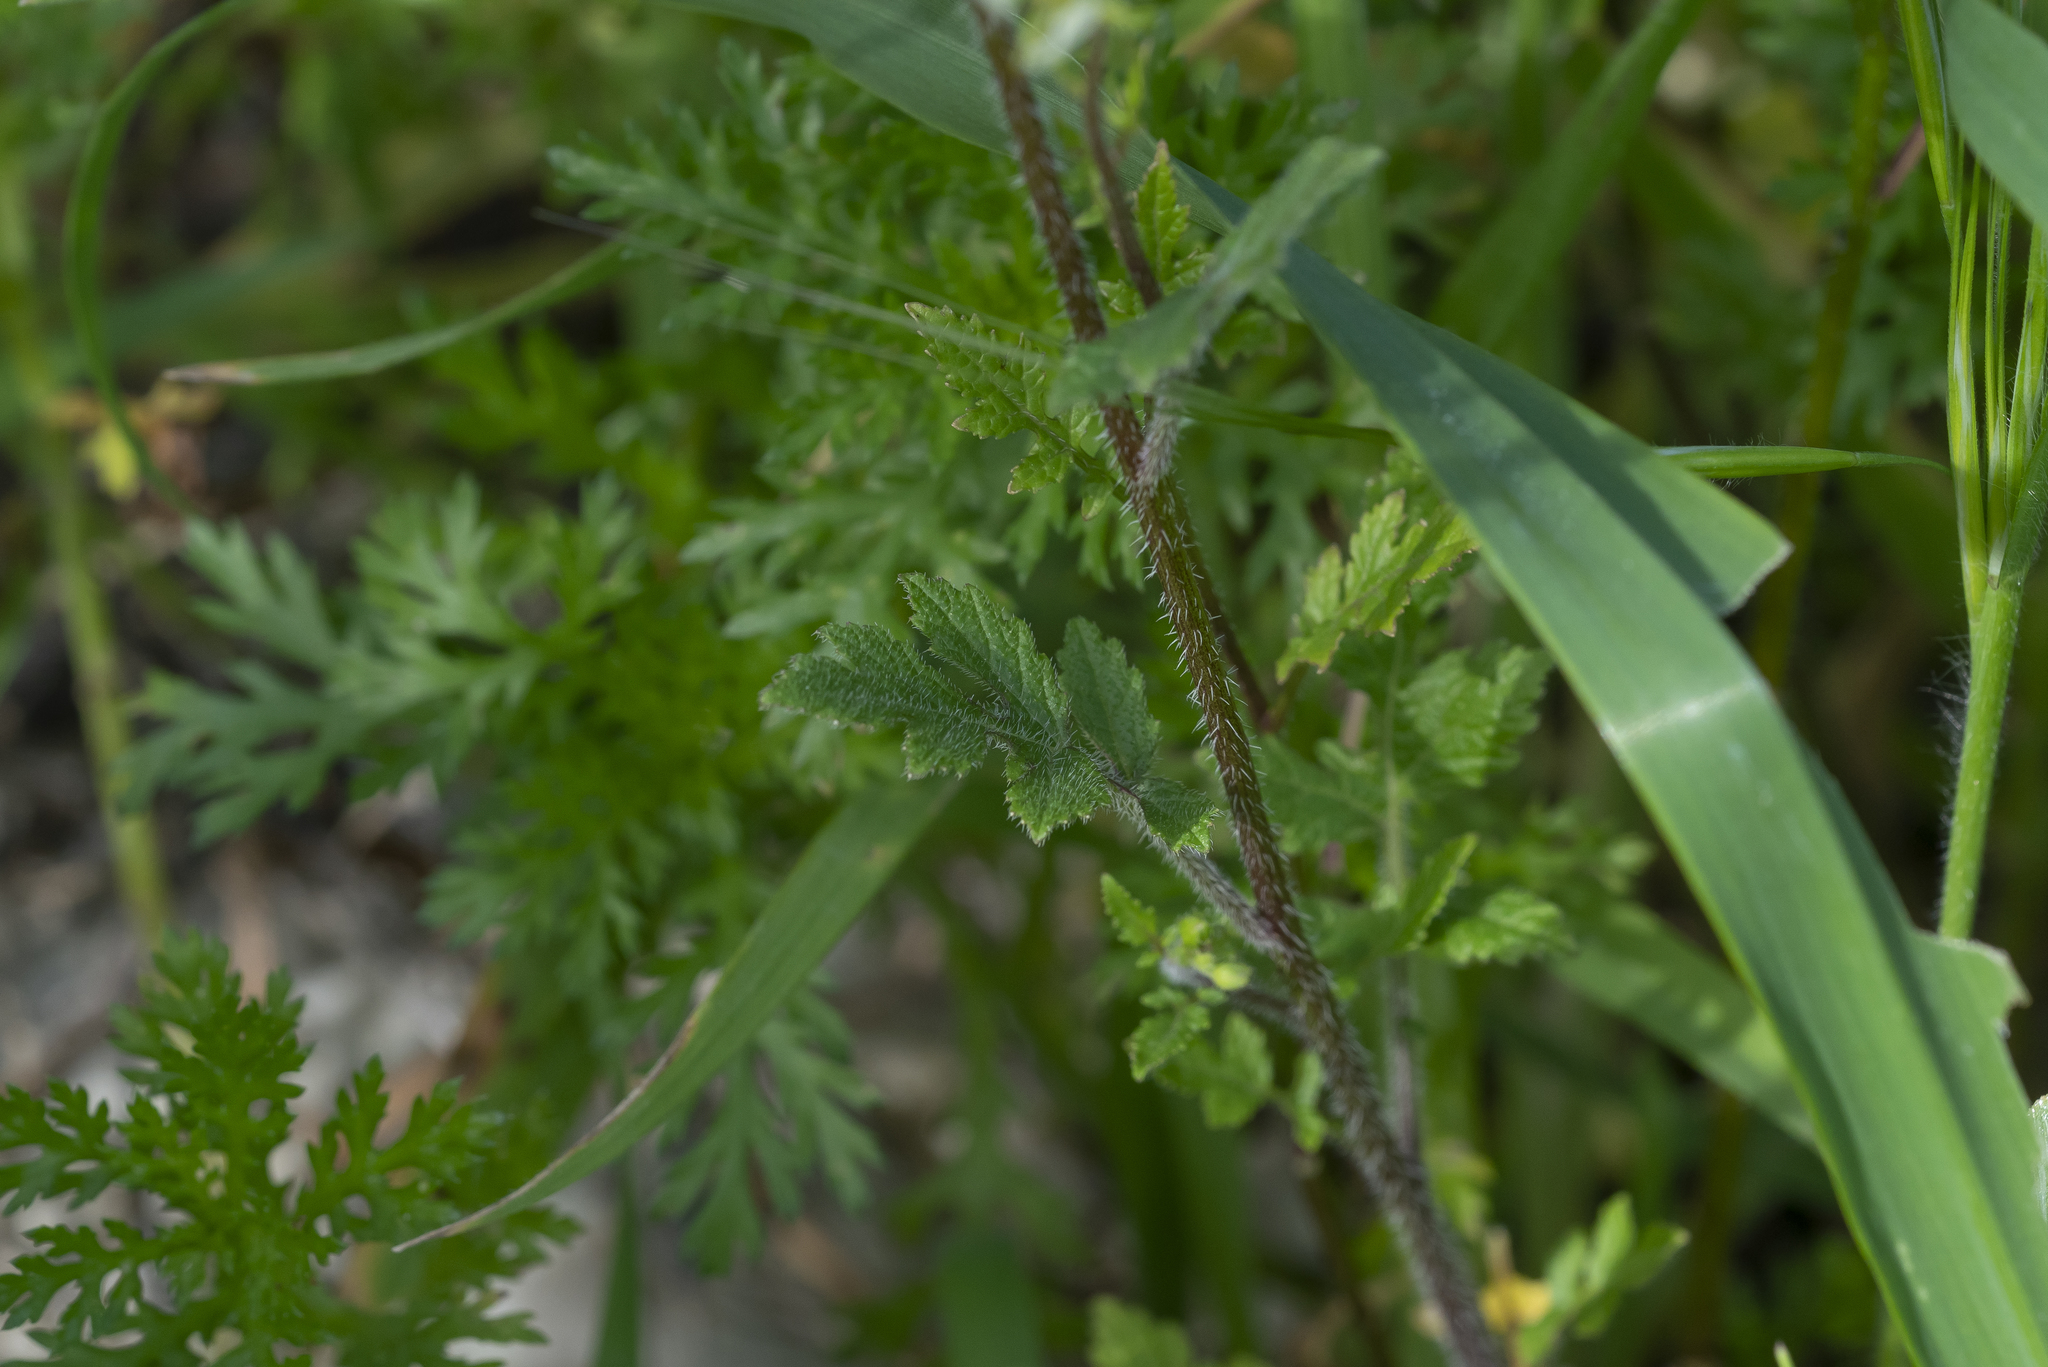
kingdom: Plantae
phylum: Tracheophyta
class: Magnoliopsida
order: Brassicales
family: Brassicaceae
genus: Sinapis
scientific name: Sinapis
